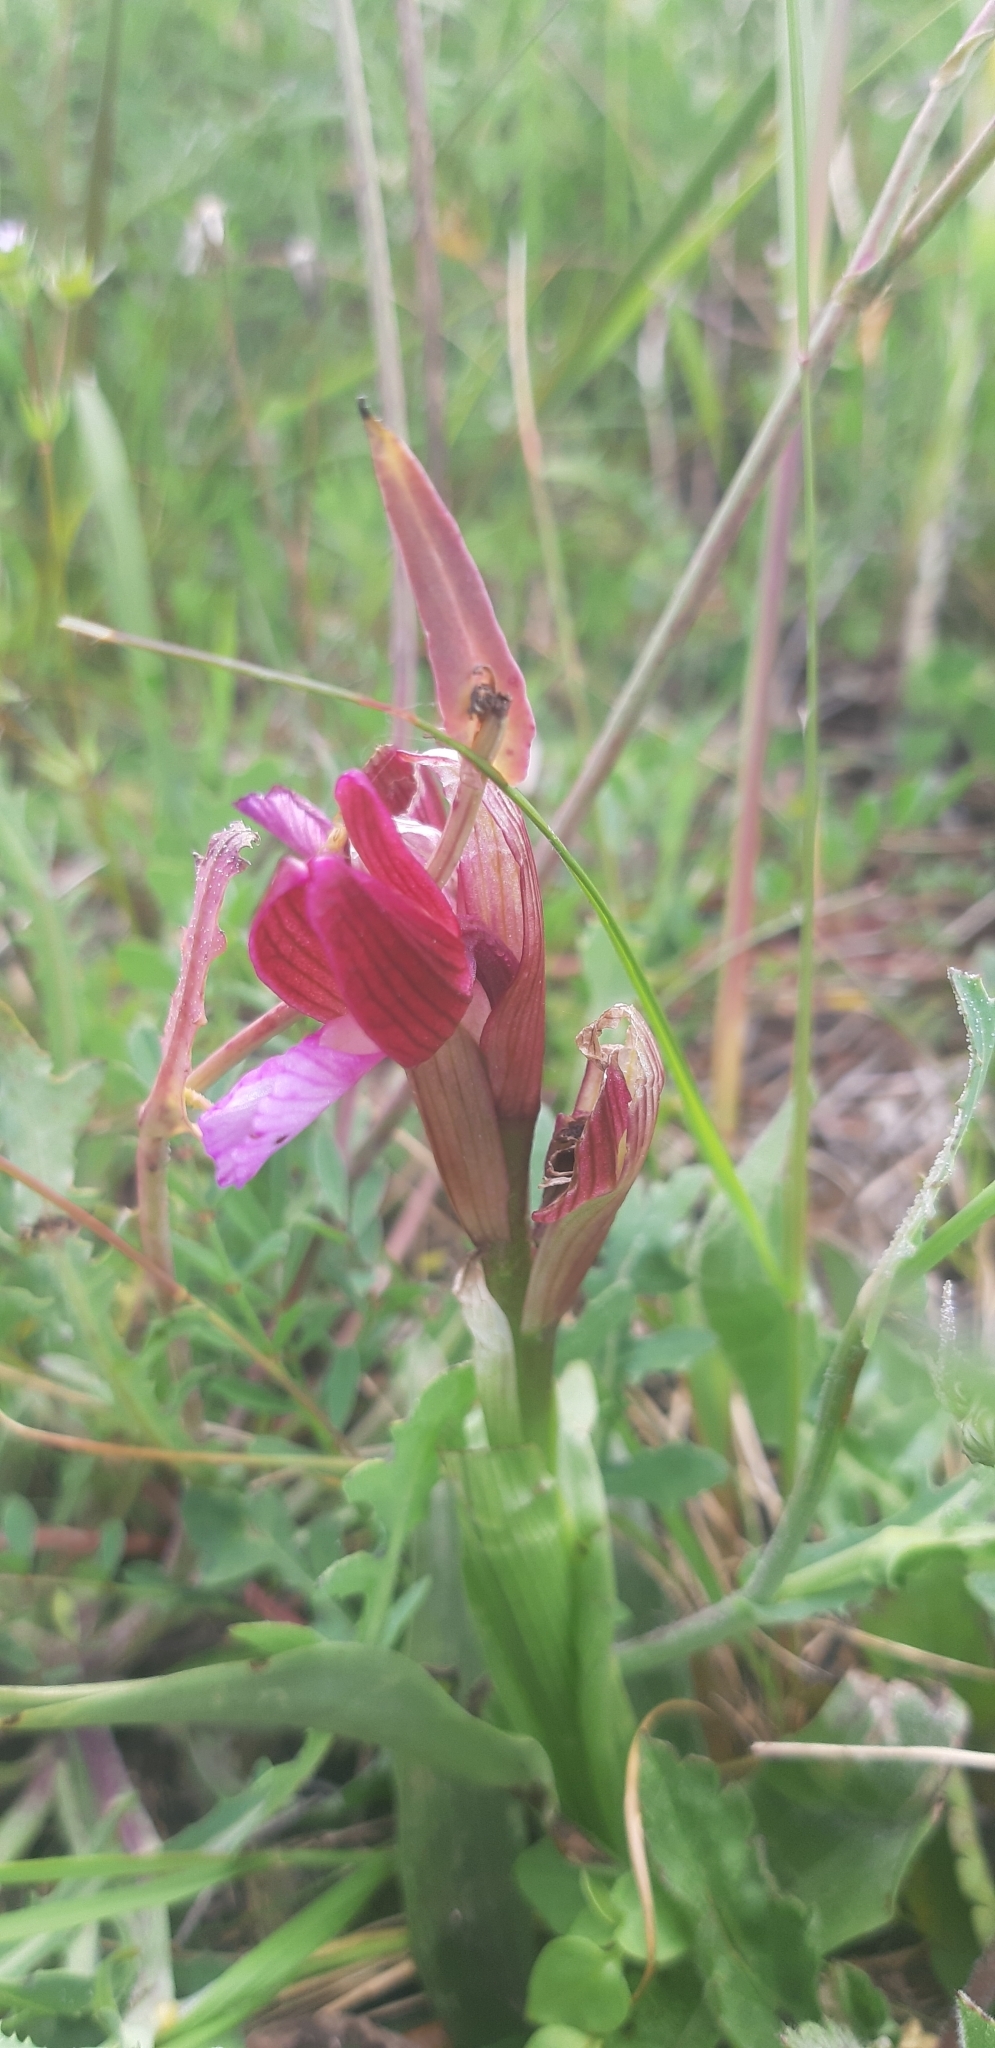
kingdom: Plantae
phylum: Tracheophyta
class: Liliopsida
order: Asparagales
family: Orchidaceae
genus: Anacamptis
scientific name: Anacamptis papilionacea
